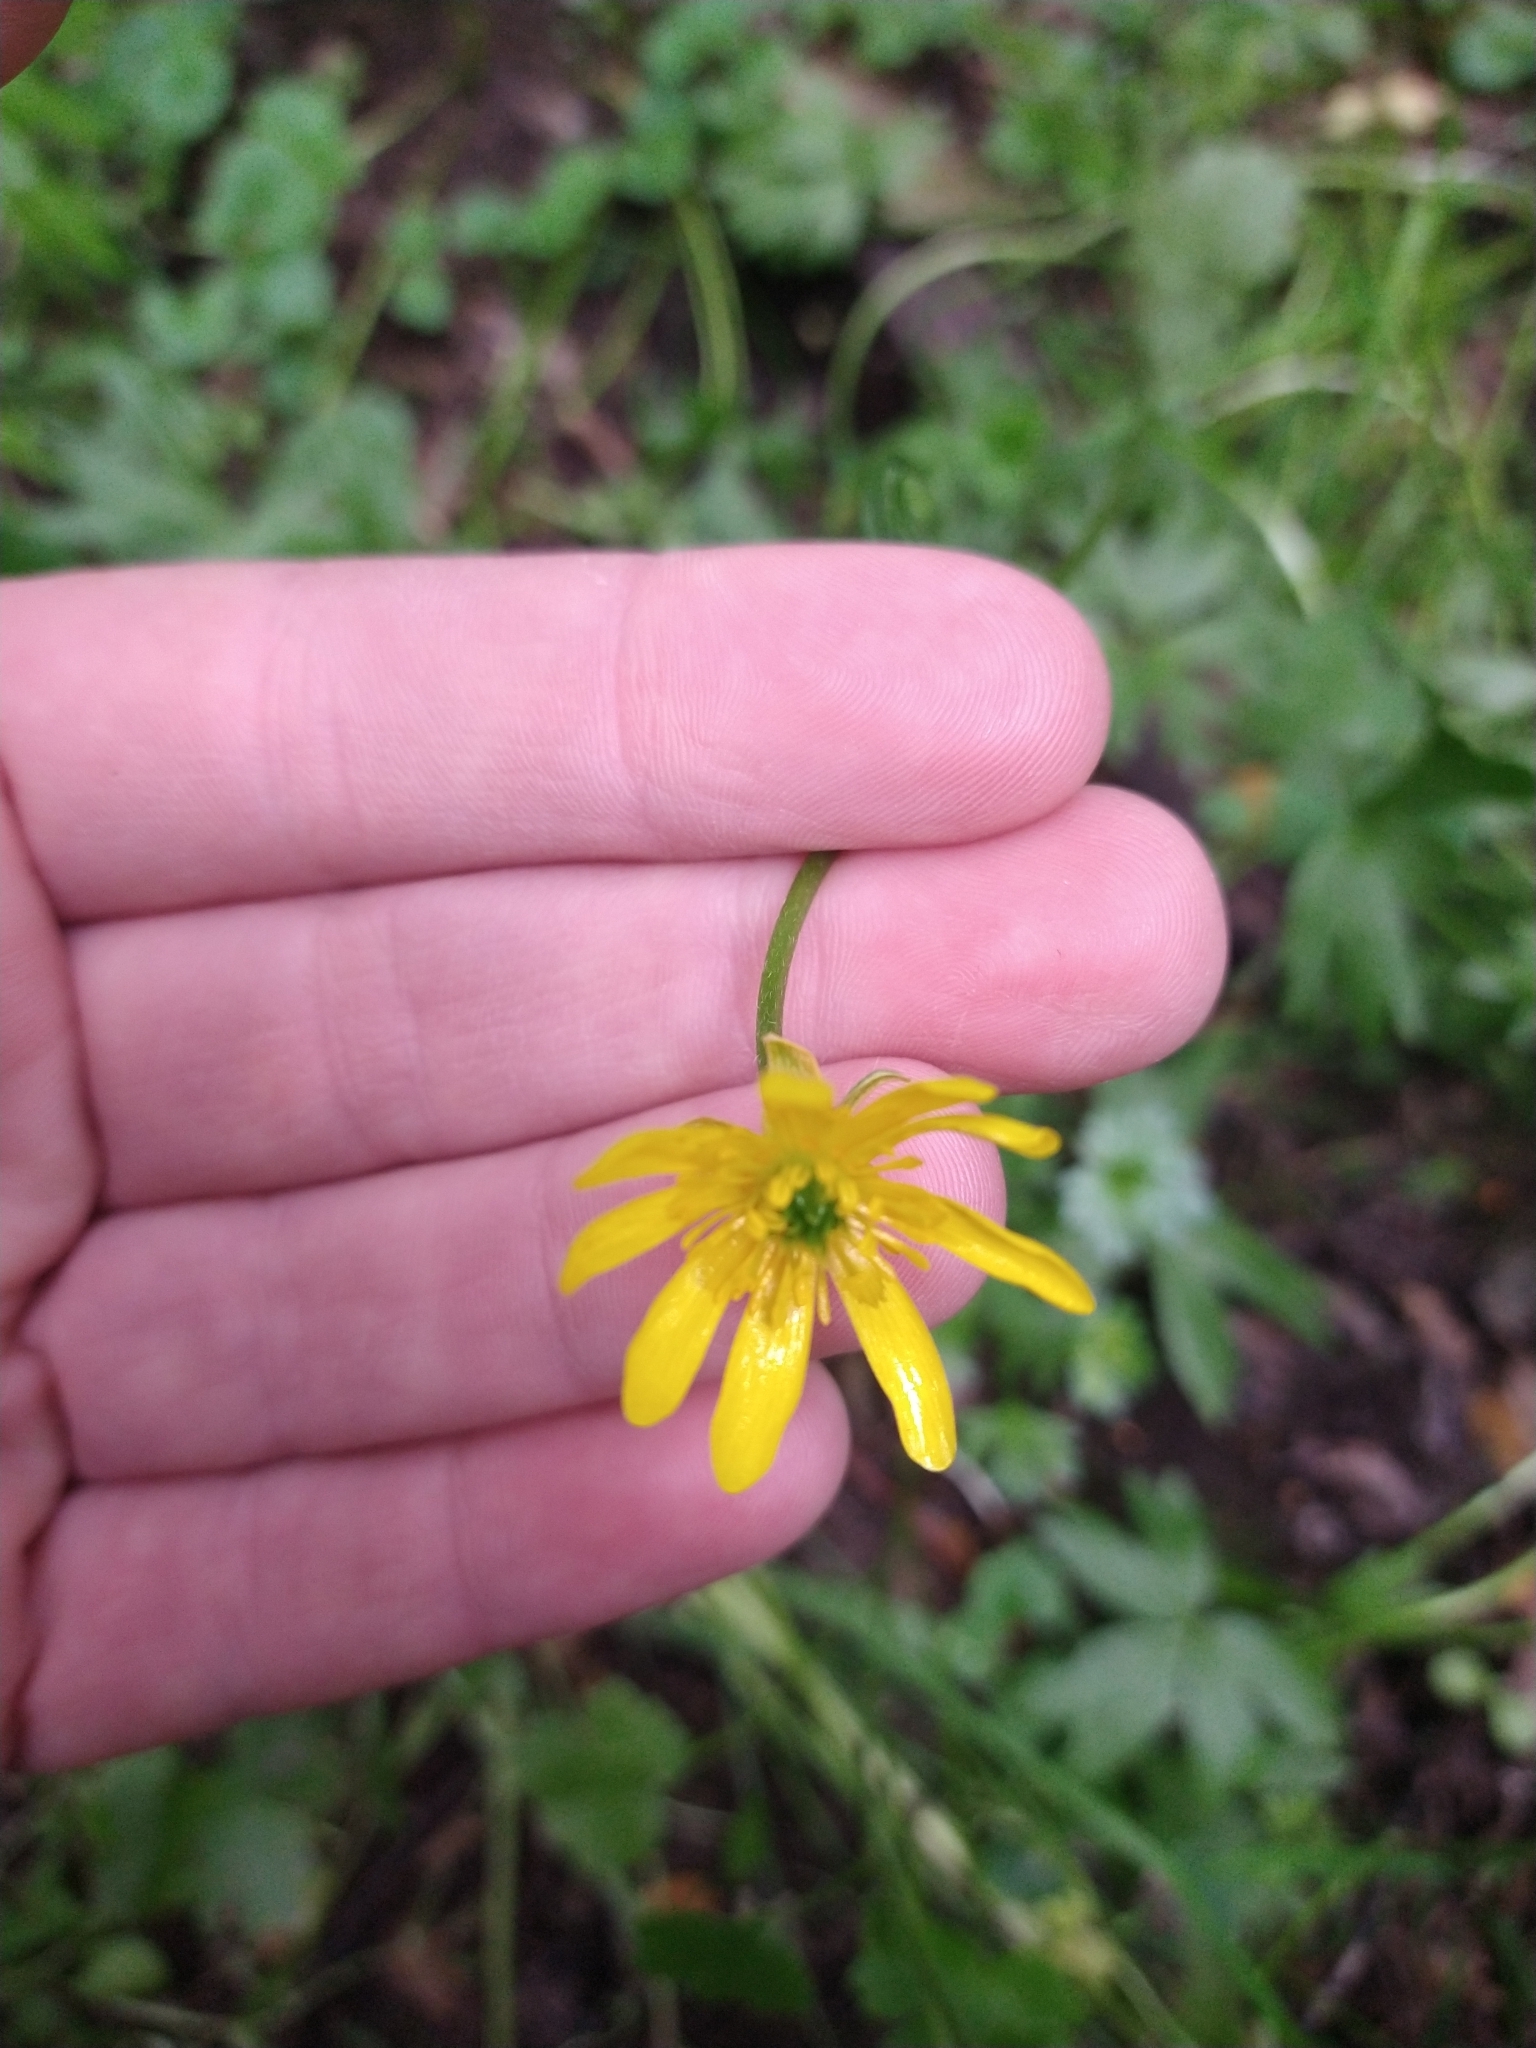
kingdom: Plantae
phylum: Tracheophyta
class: Magnoliopsida
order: Ranunculales
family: Ranunculaceae
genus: Ranunculus
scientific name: Ranunculus peduncularis
